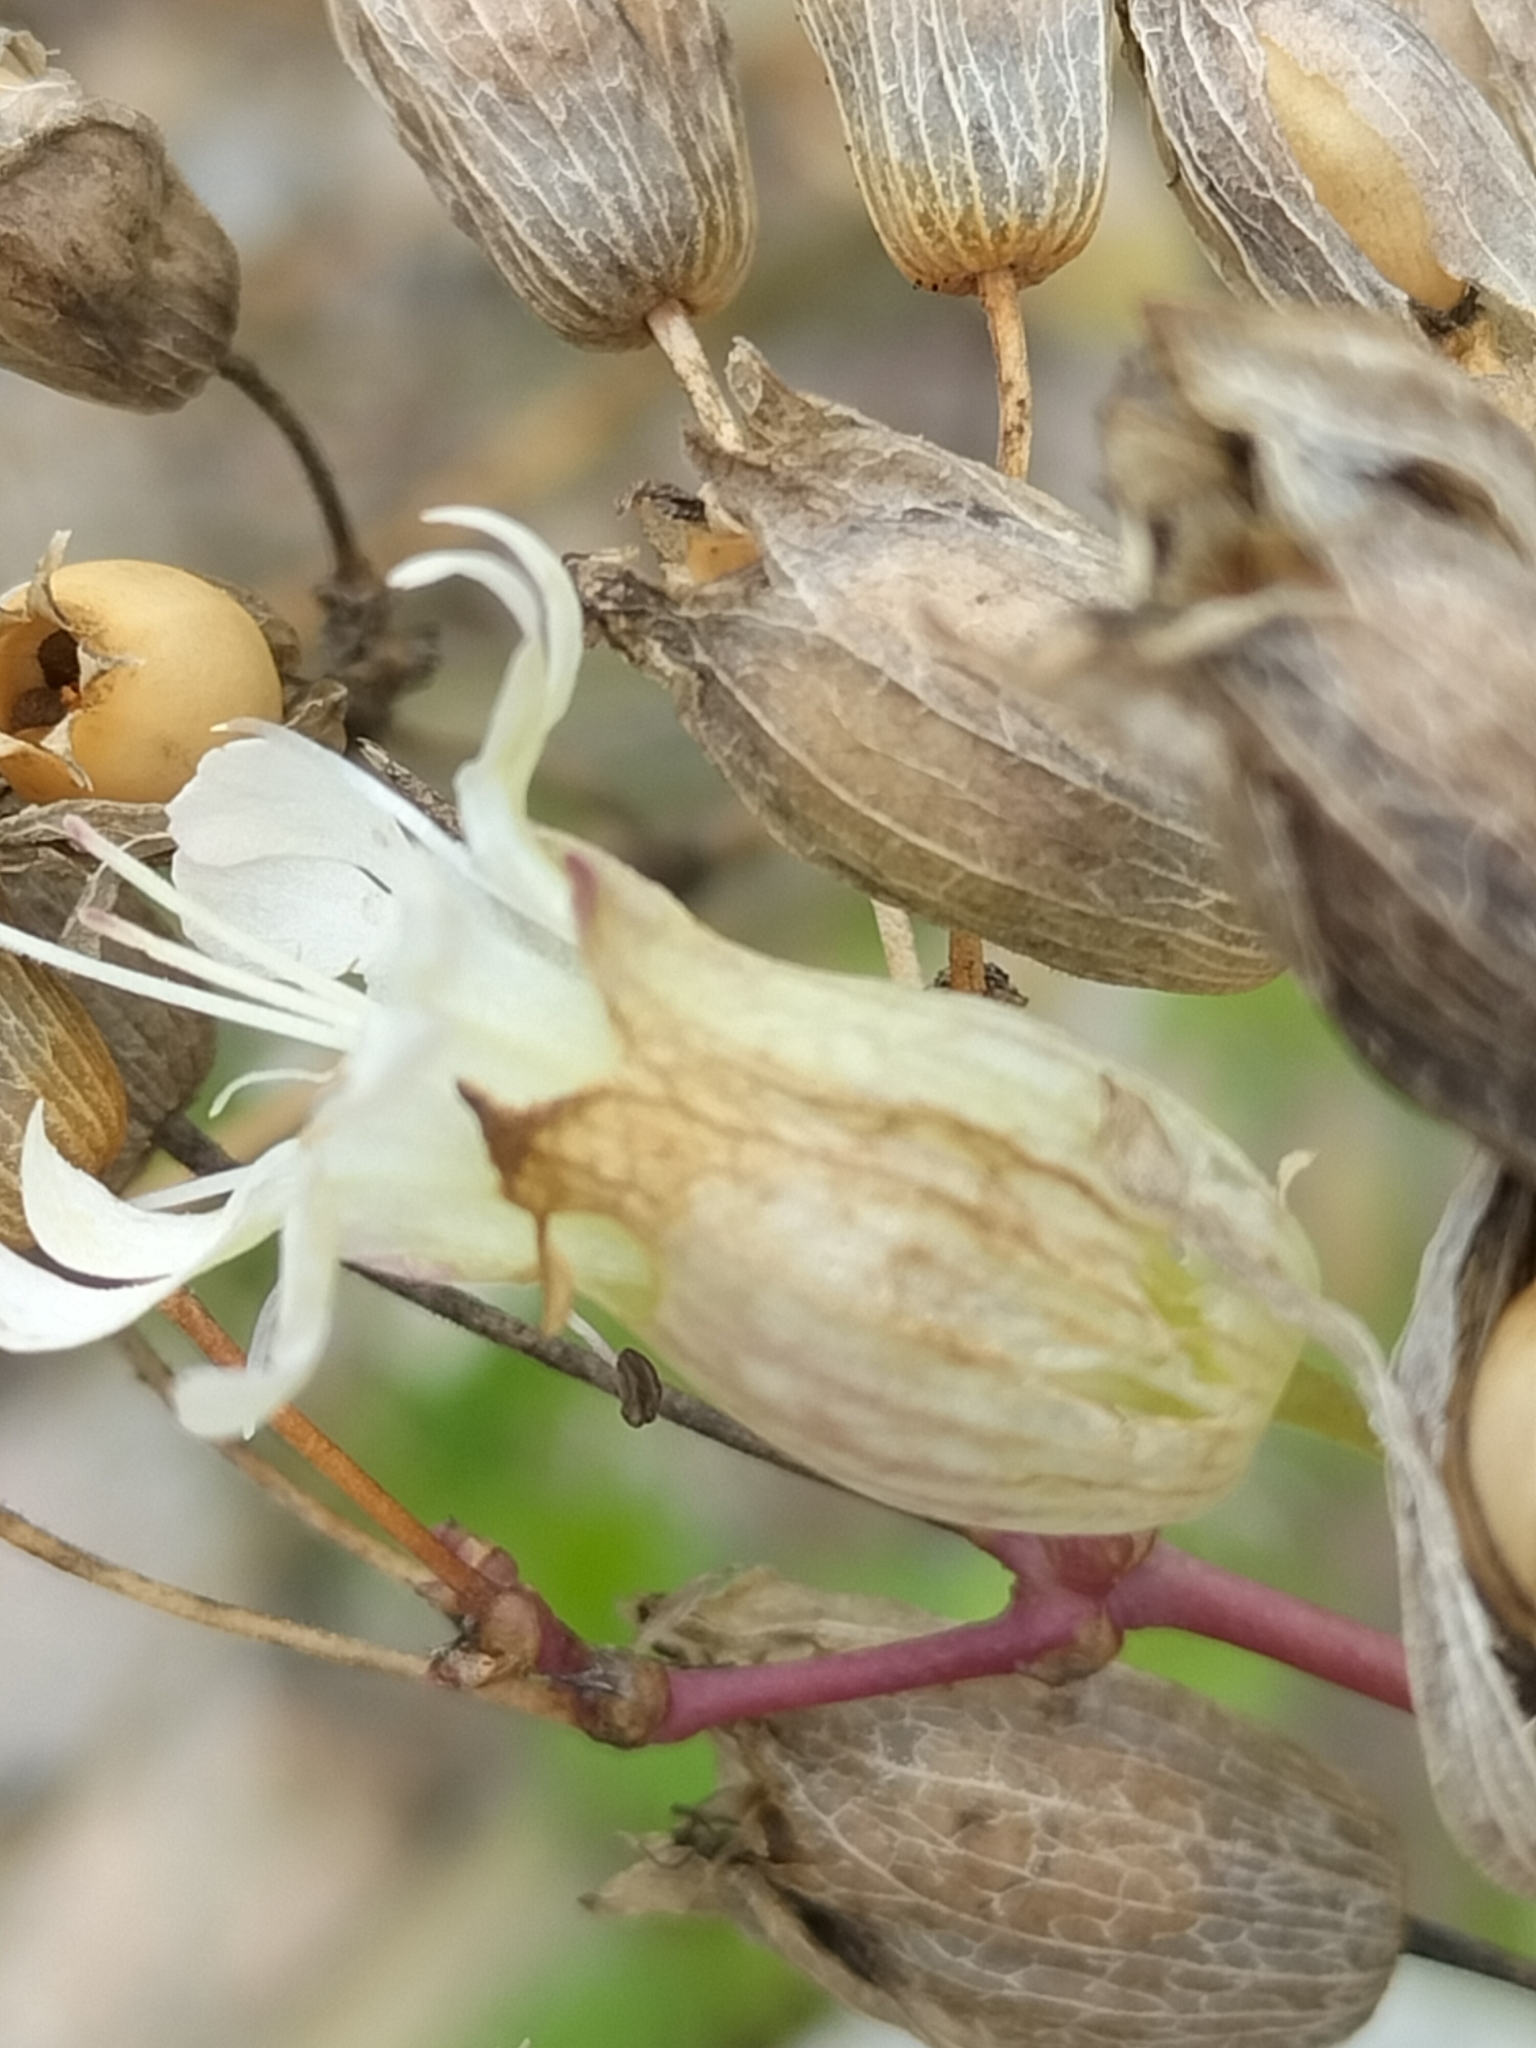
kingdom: Plantae
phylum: Tracheophyta
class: Magnoliopsida
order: Caryophyllales
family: Caryophyllaceae
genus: Silene
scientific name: Silene vulgaris
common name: Bladder campion
